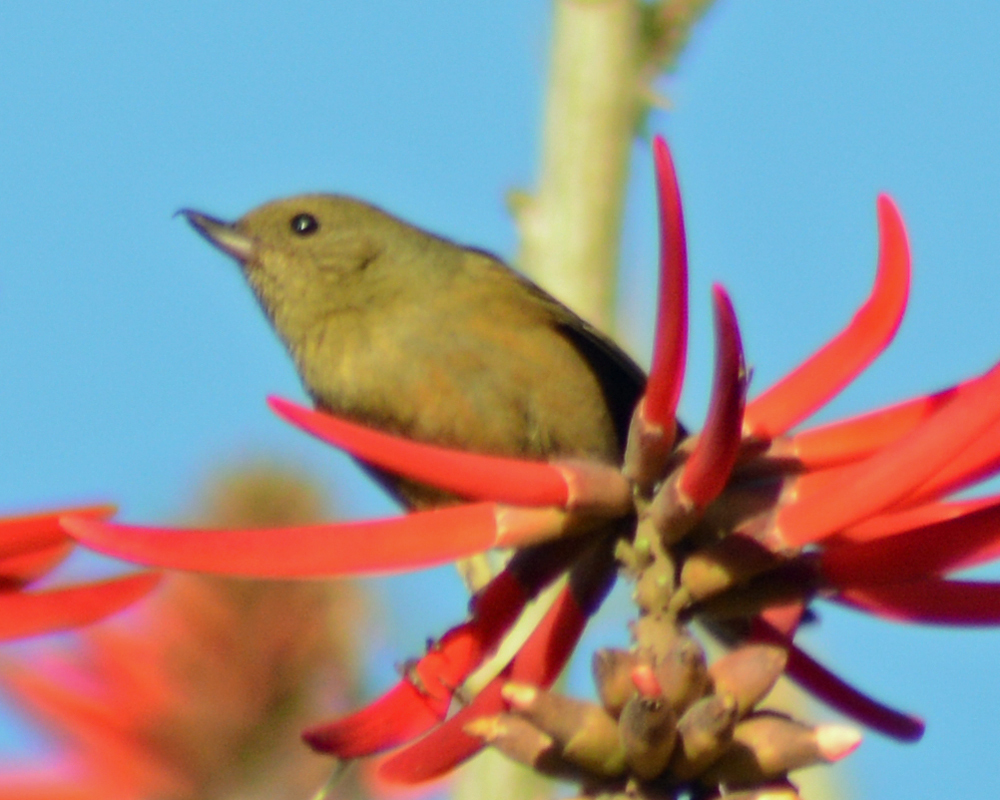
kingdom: Animalia
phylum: Chordata
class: Aves
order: Passeriformes
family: Thraupidae
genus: Diglossa
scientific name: Diglossa baritula
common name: Cinnamon-bellied flowerpiercer
